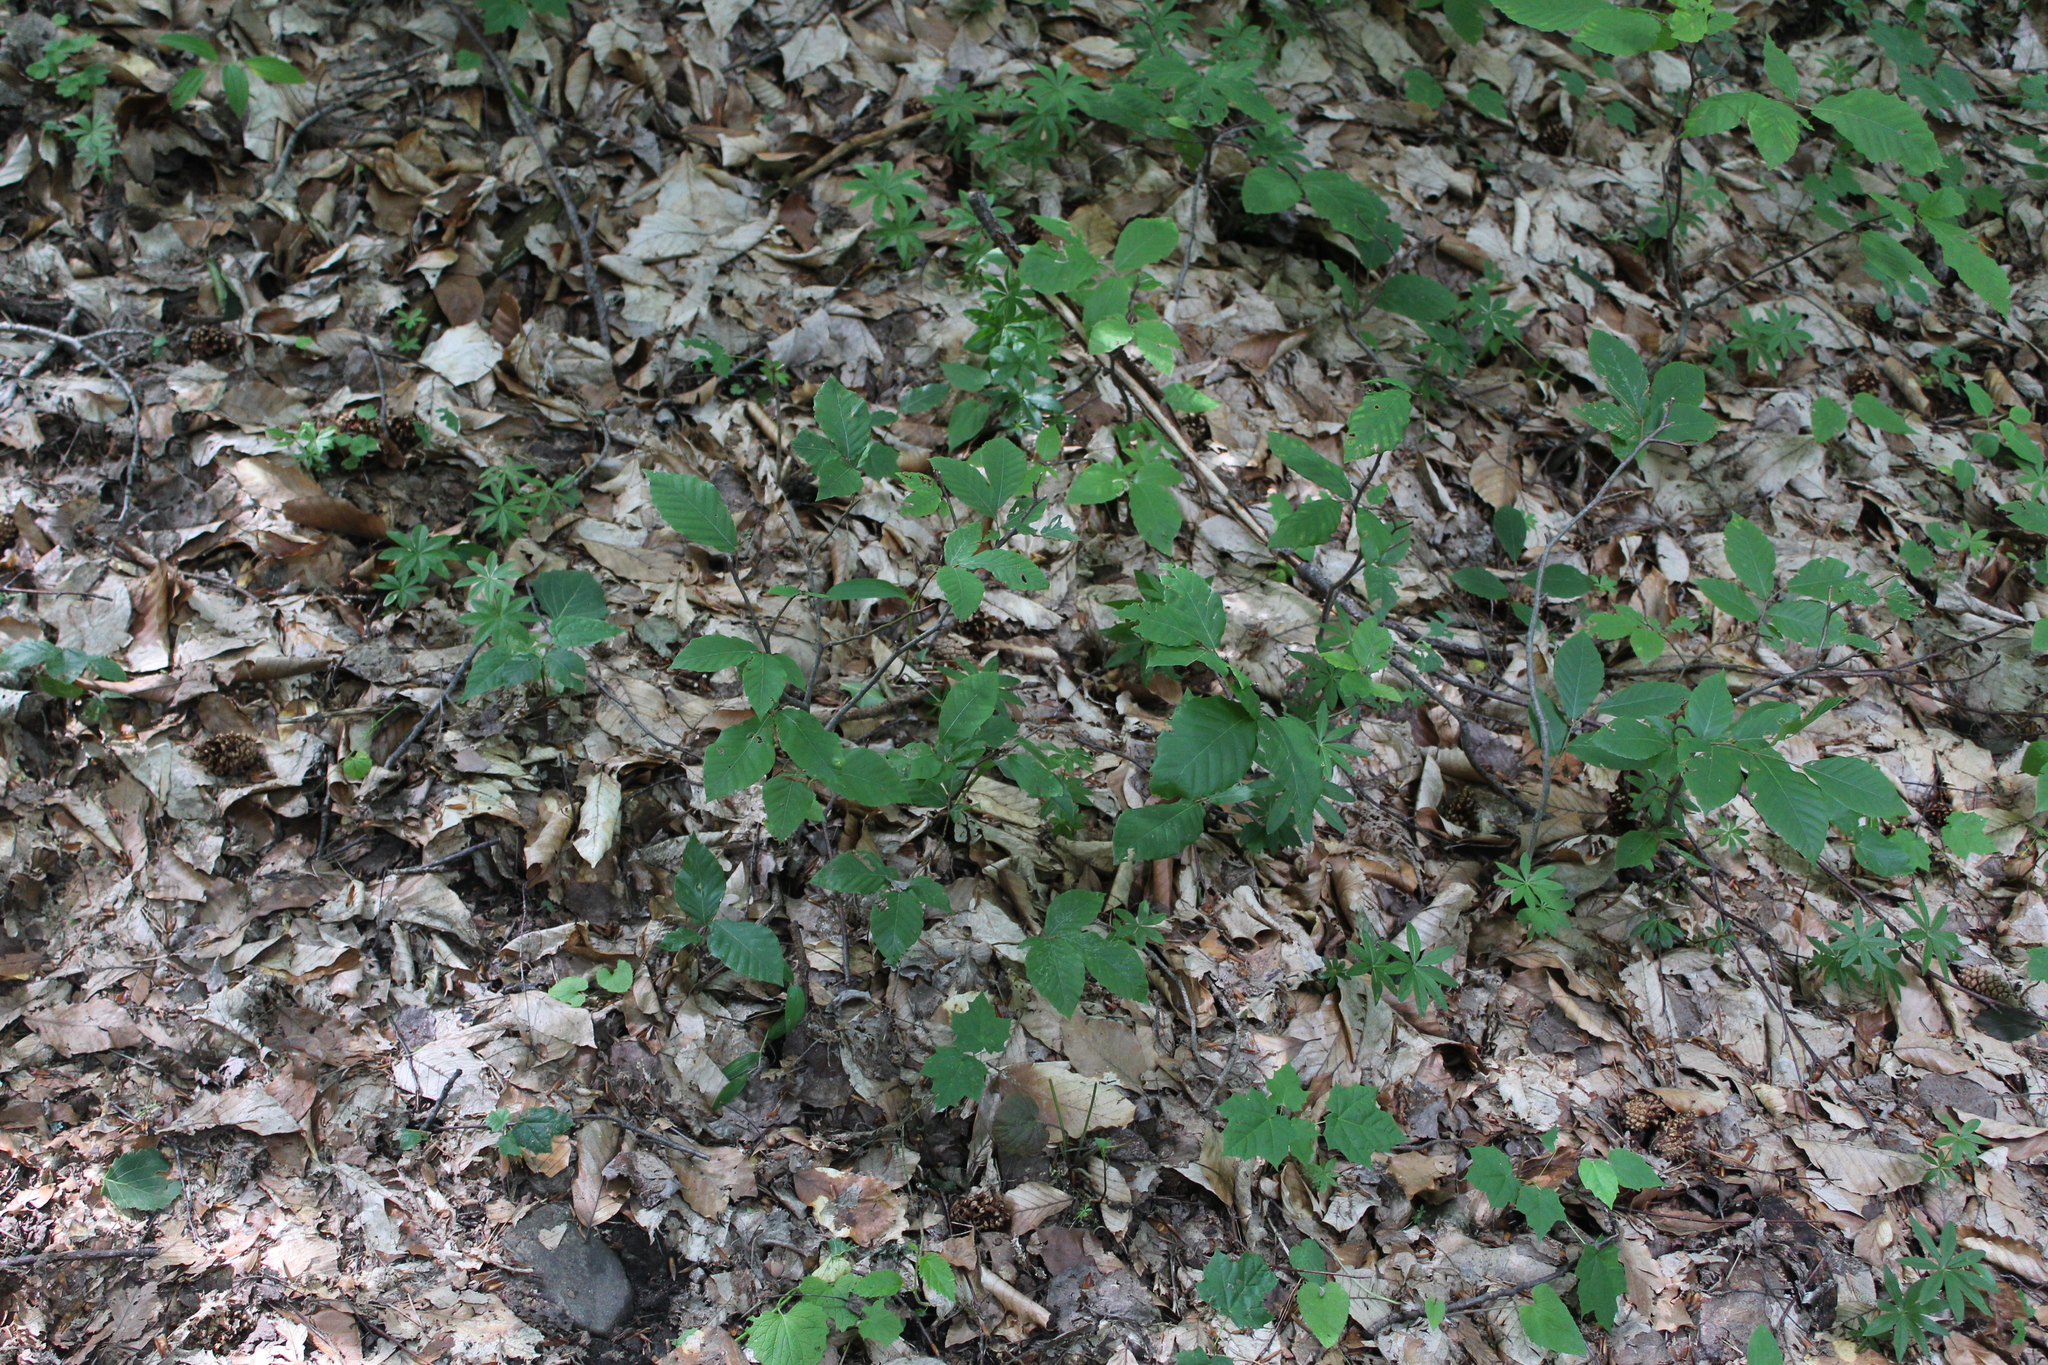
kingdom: Plantae
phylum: Tracheophyta
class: Magnoliopsida
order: Fagales
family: Fagaceae
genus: Fagus
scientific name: Fagus orientalis
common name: Oriental beech
